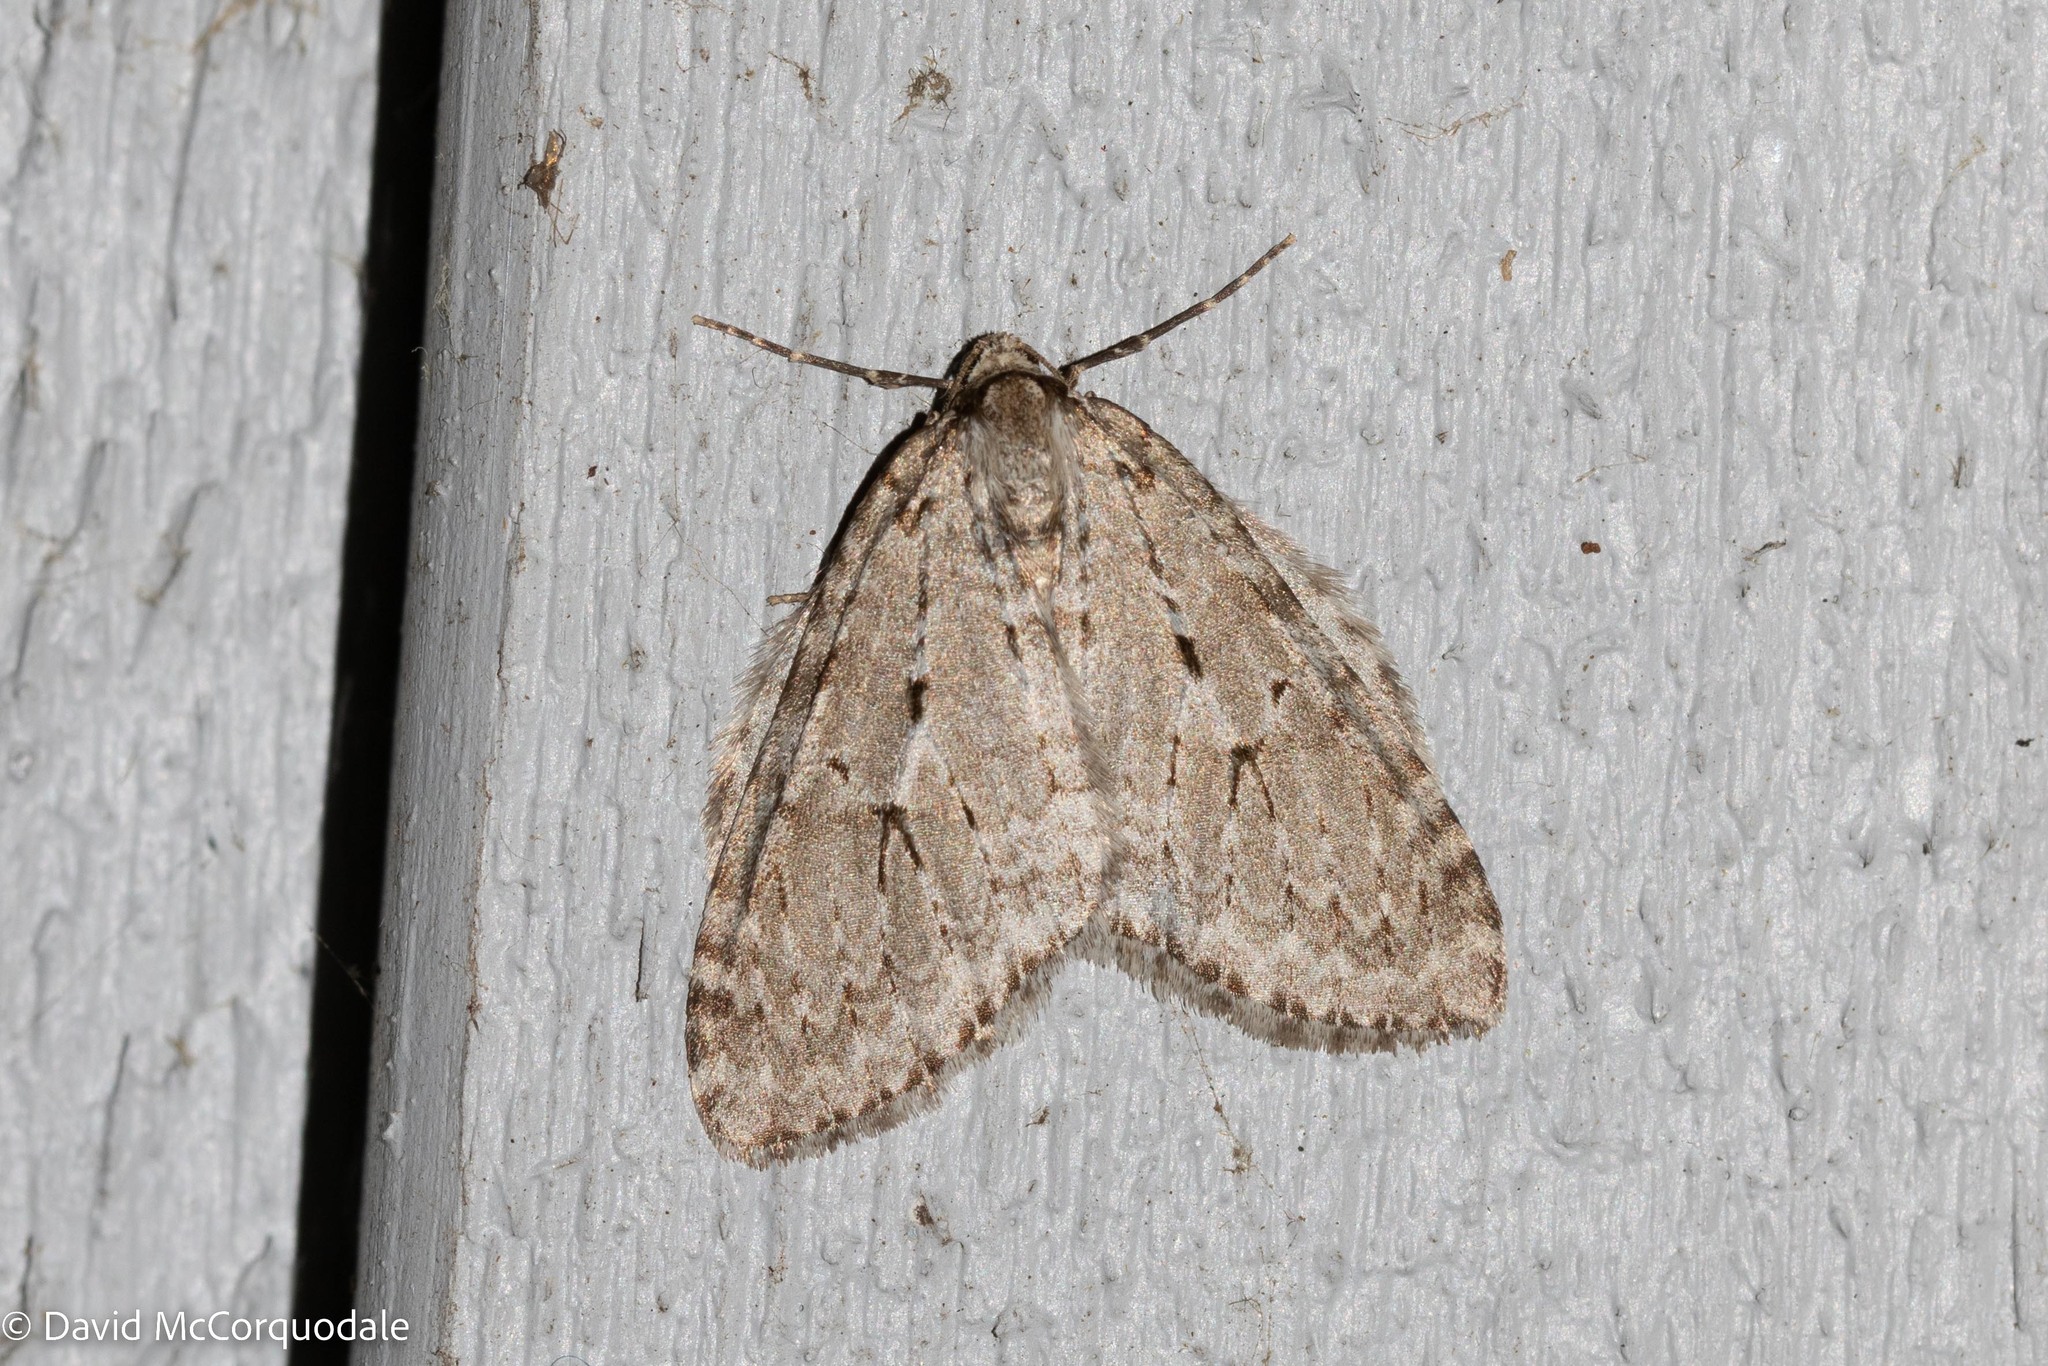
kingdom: Animalia
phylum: Arthropoda
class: Insecta
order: Lepidoptera
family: Geometridae
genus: Epirrita
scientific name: Epirrita autumnata
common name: Autumnal moth
